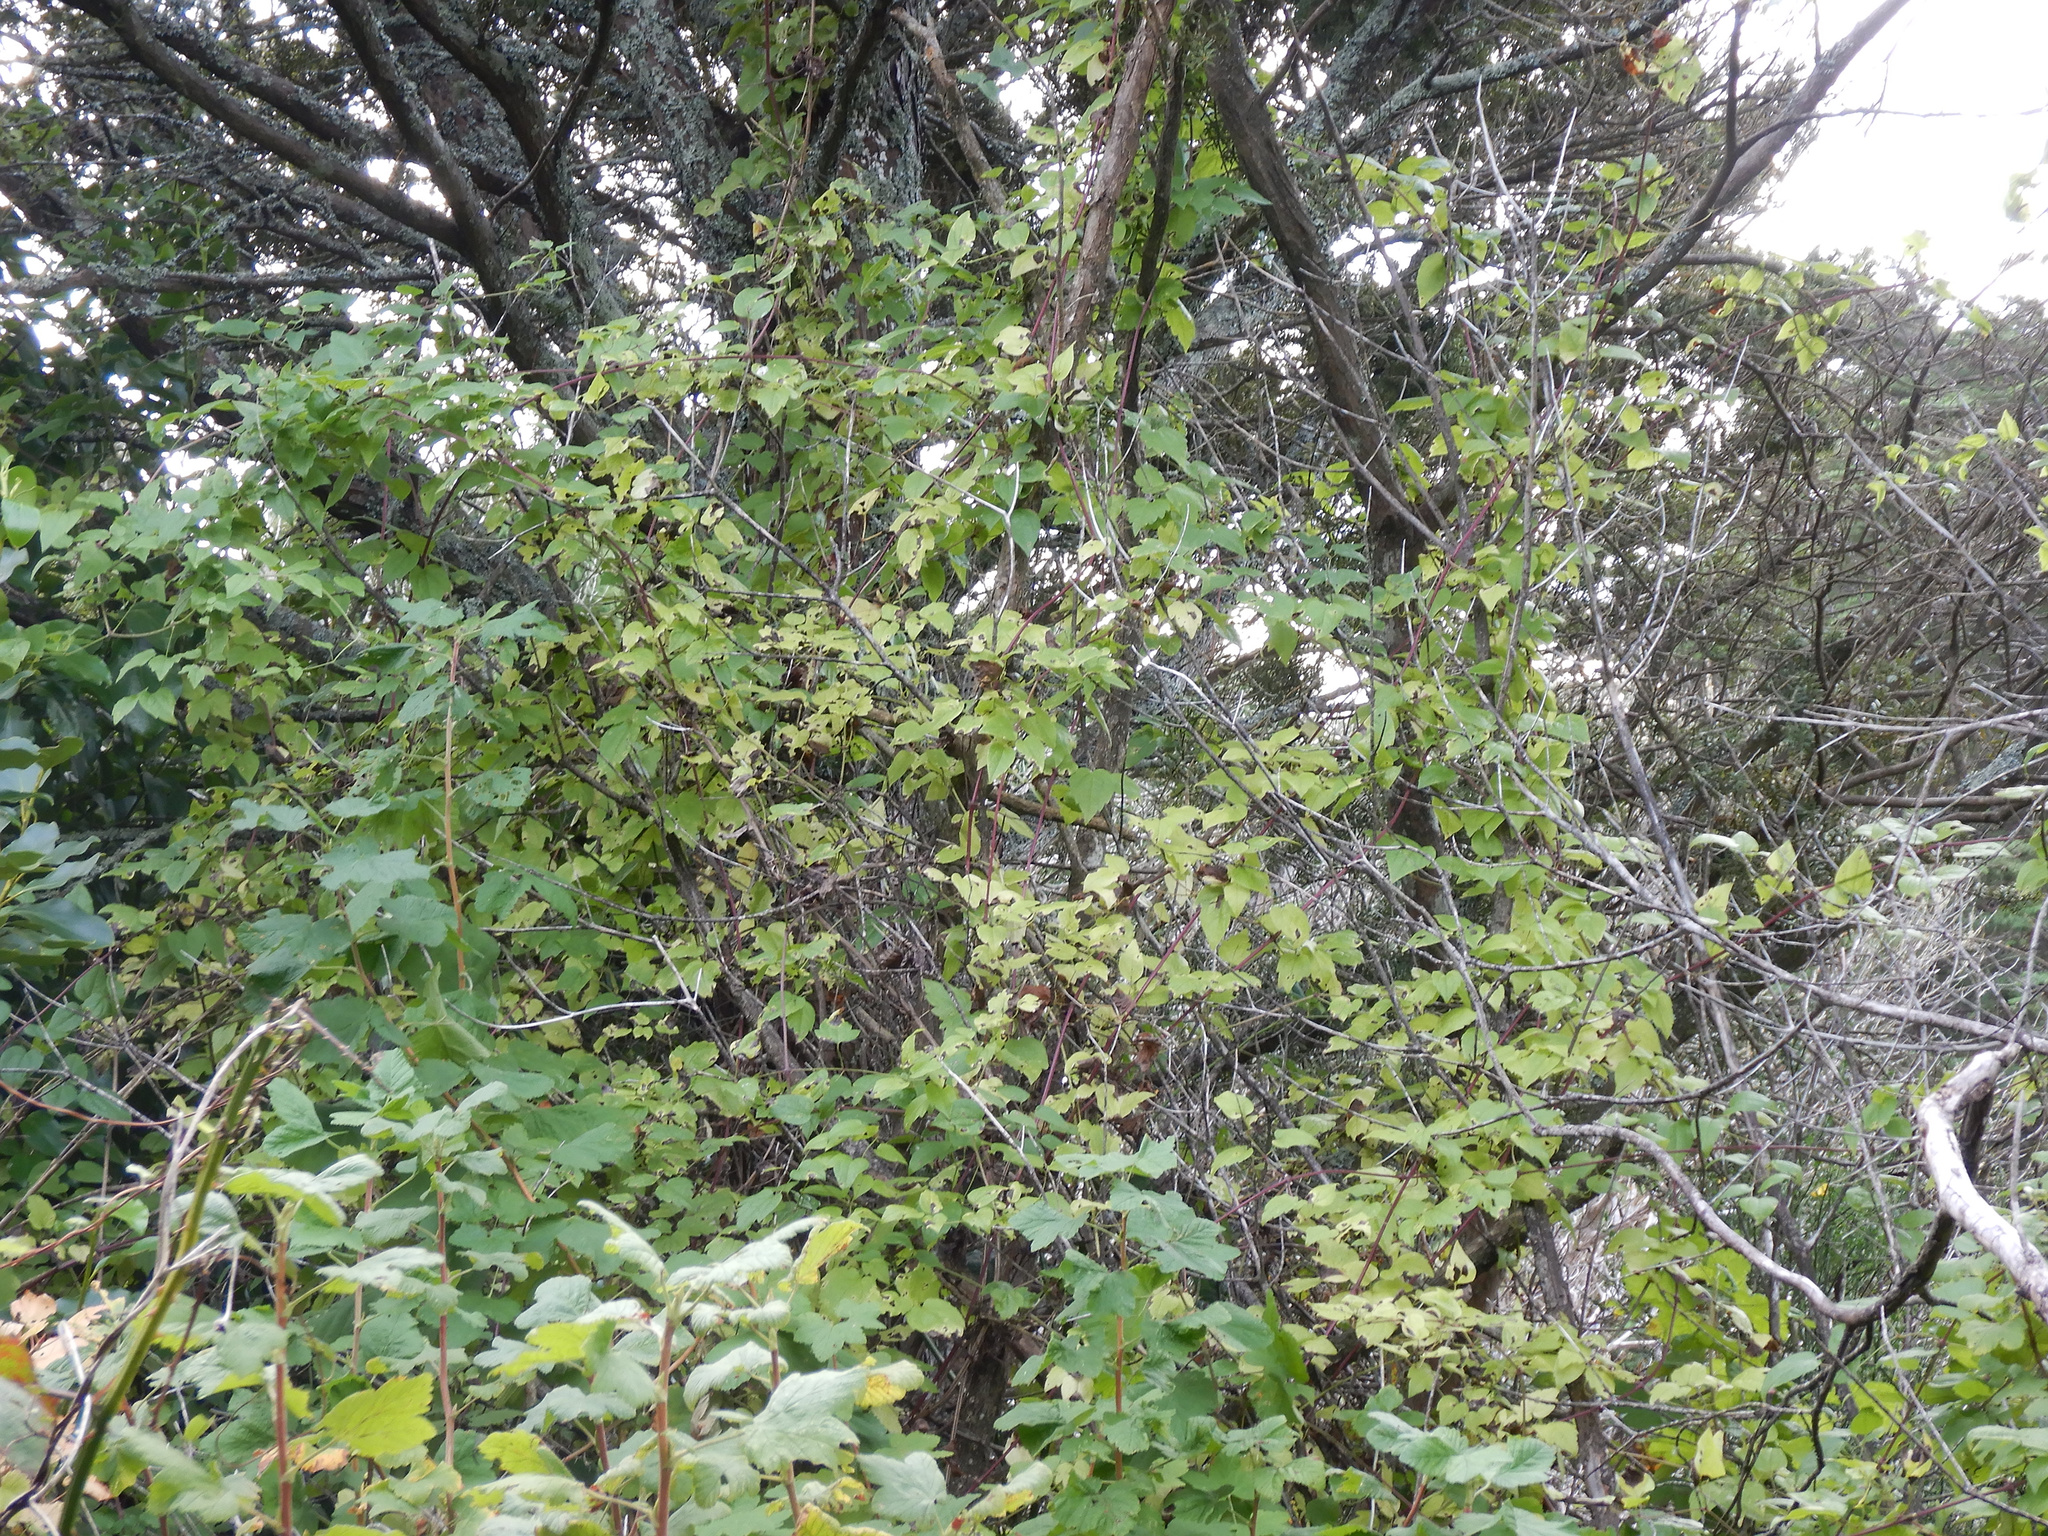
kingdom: Plantae
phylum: Tracheophyta
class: Magnoliopsida
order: Ranunculales
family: Ranunculaceae
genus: Clematis
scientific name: Clematis vitalba
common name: Evergreen clematis
